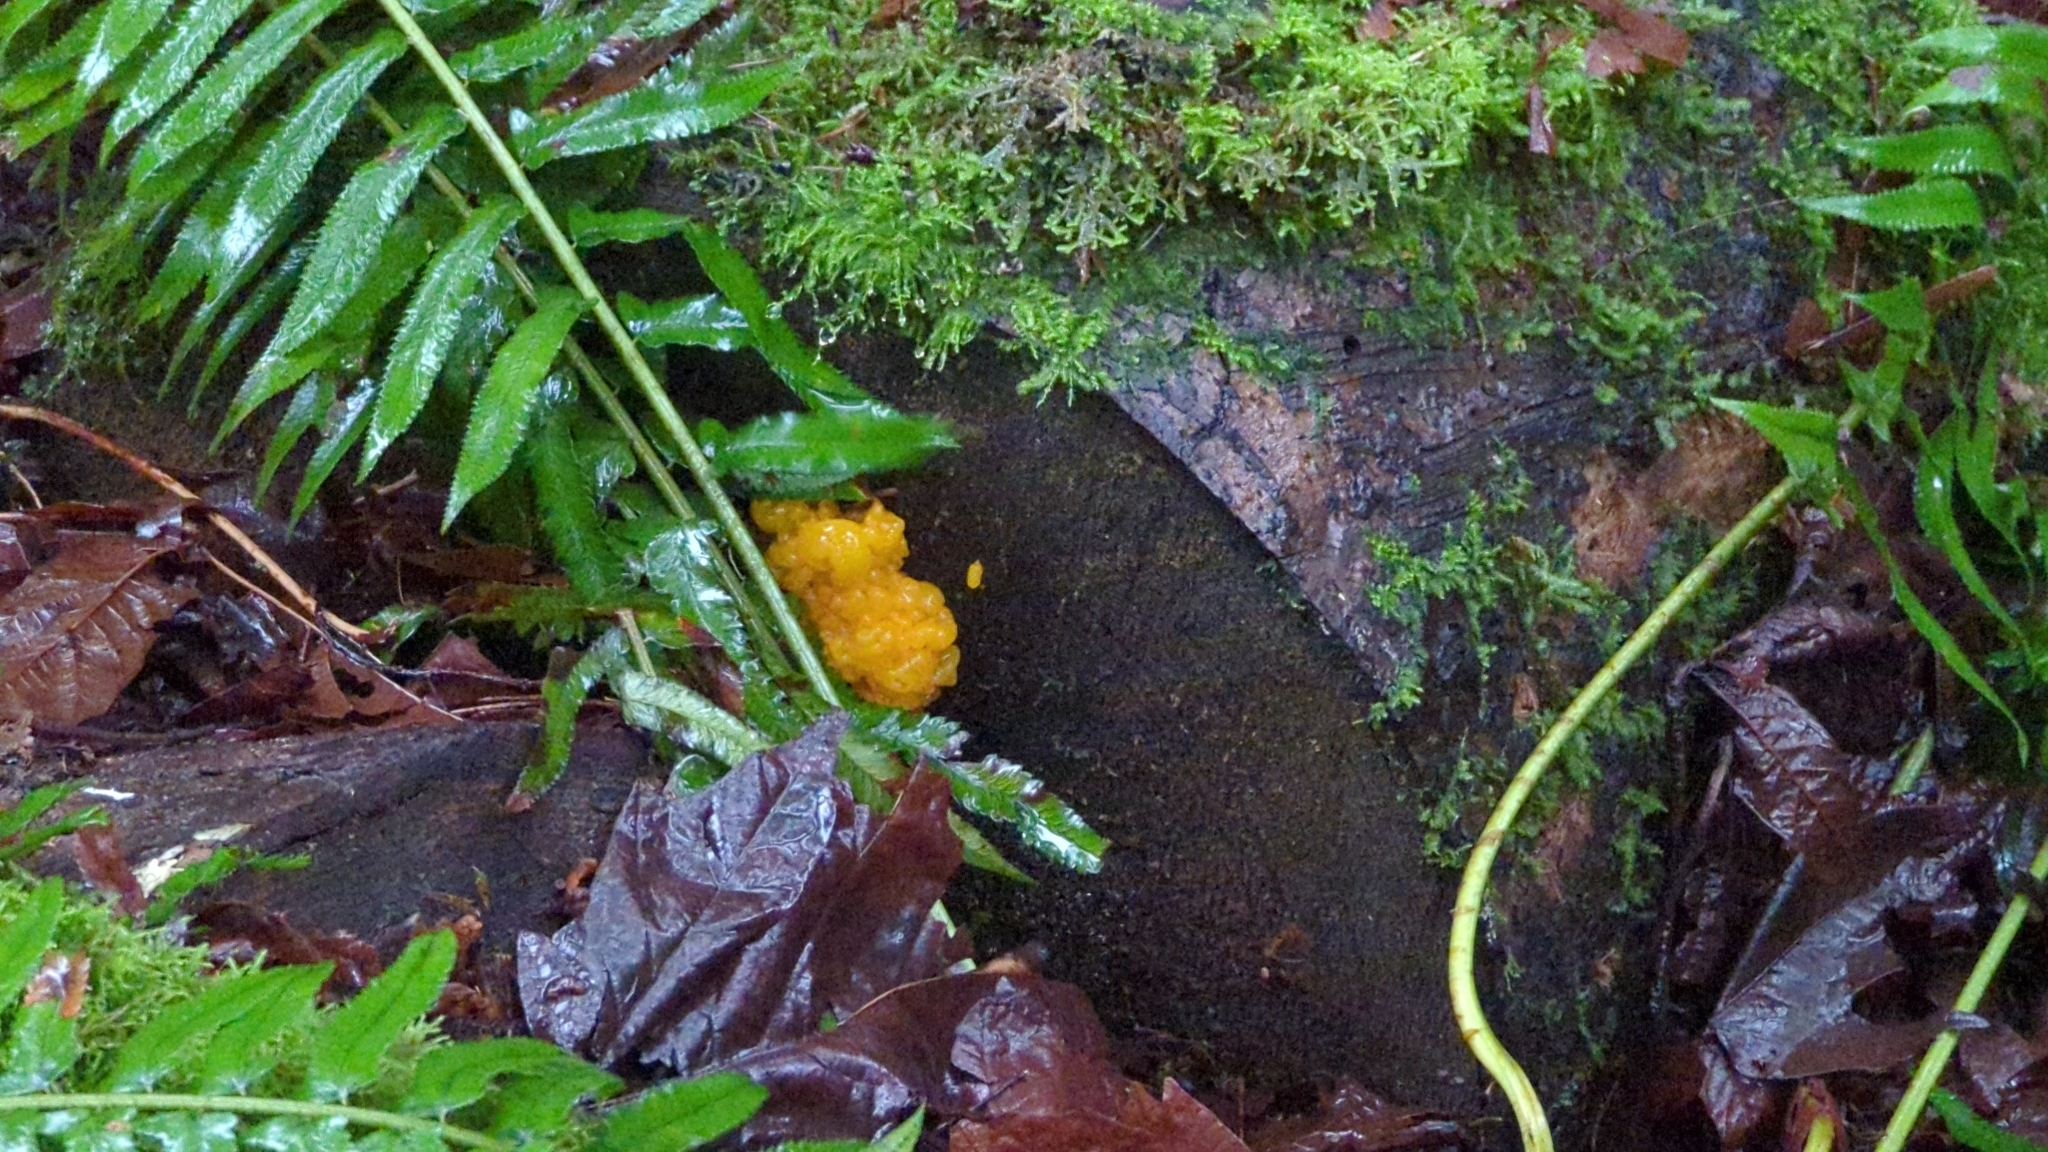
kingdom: Fungi
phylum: Basidiomycota
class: Dacrymycetes
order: Dacrymycetales
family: Dacrymycetaceae
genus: Dacrymyces
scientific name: Dacrymyces chrysospermus
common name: Orange jelly spot
